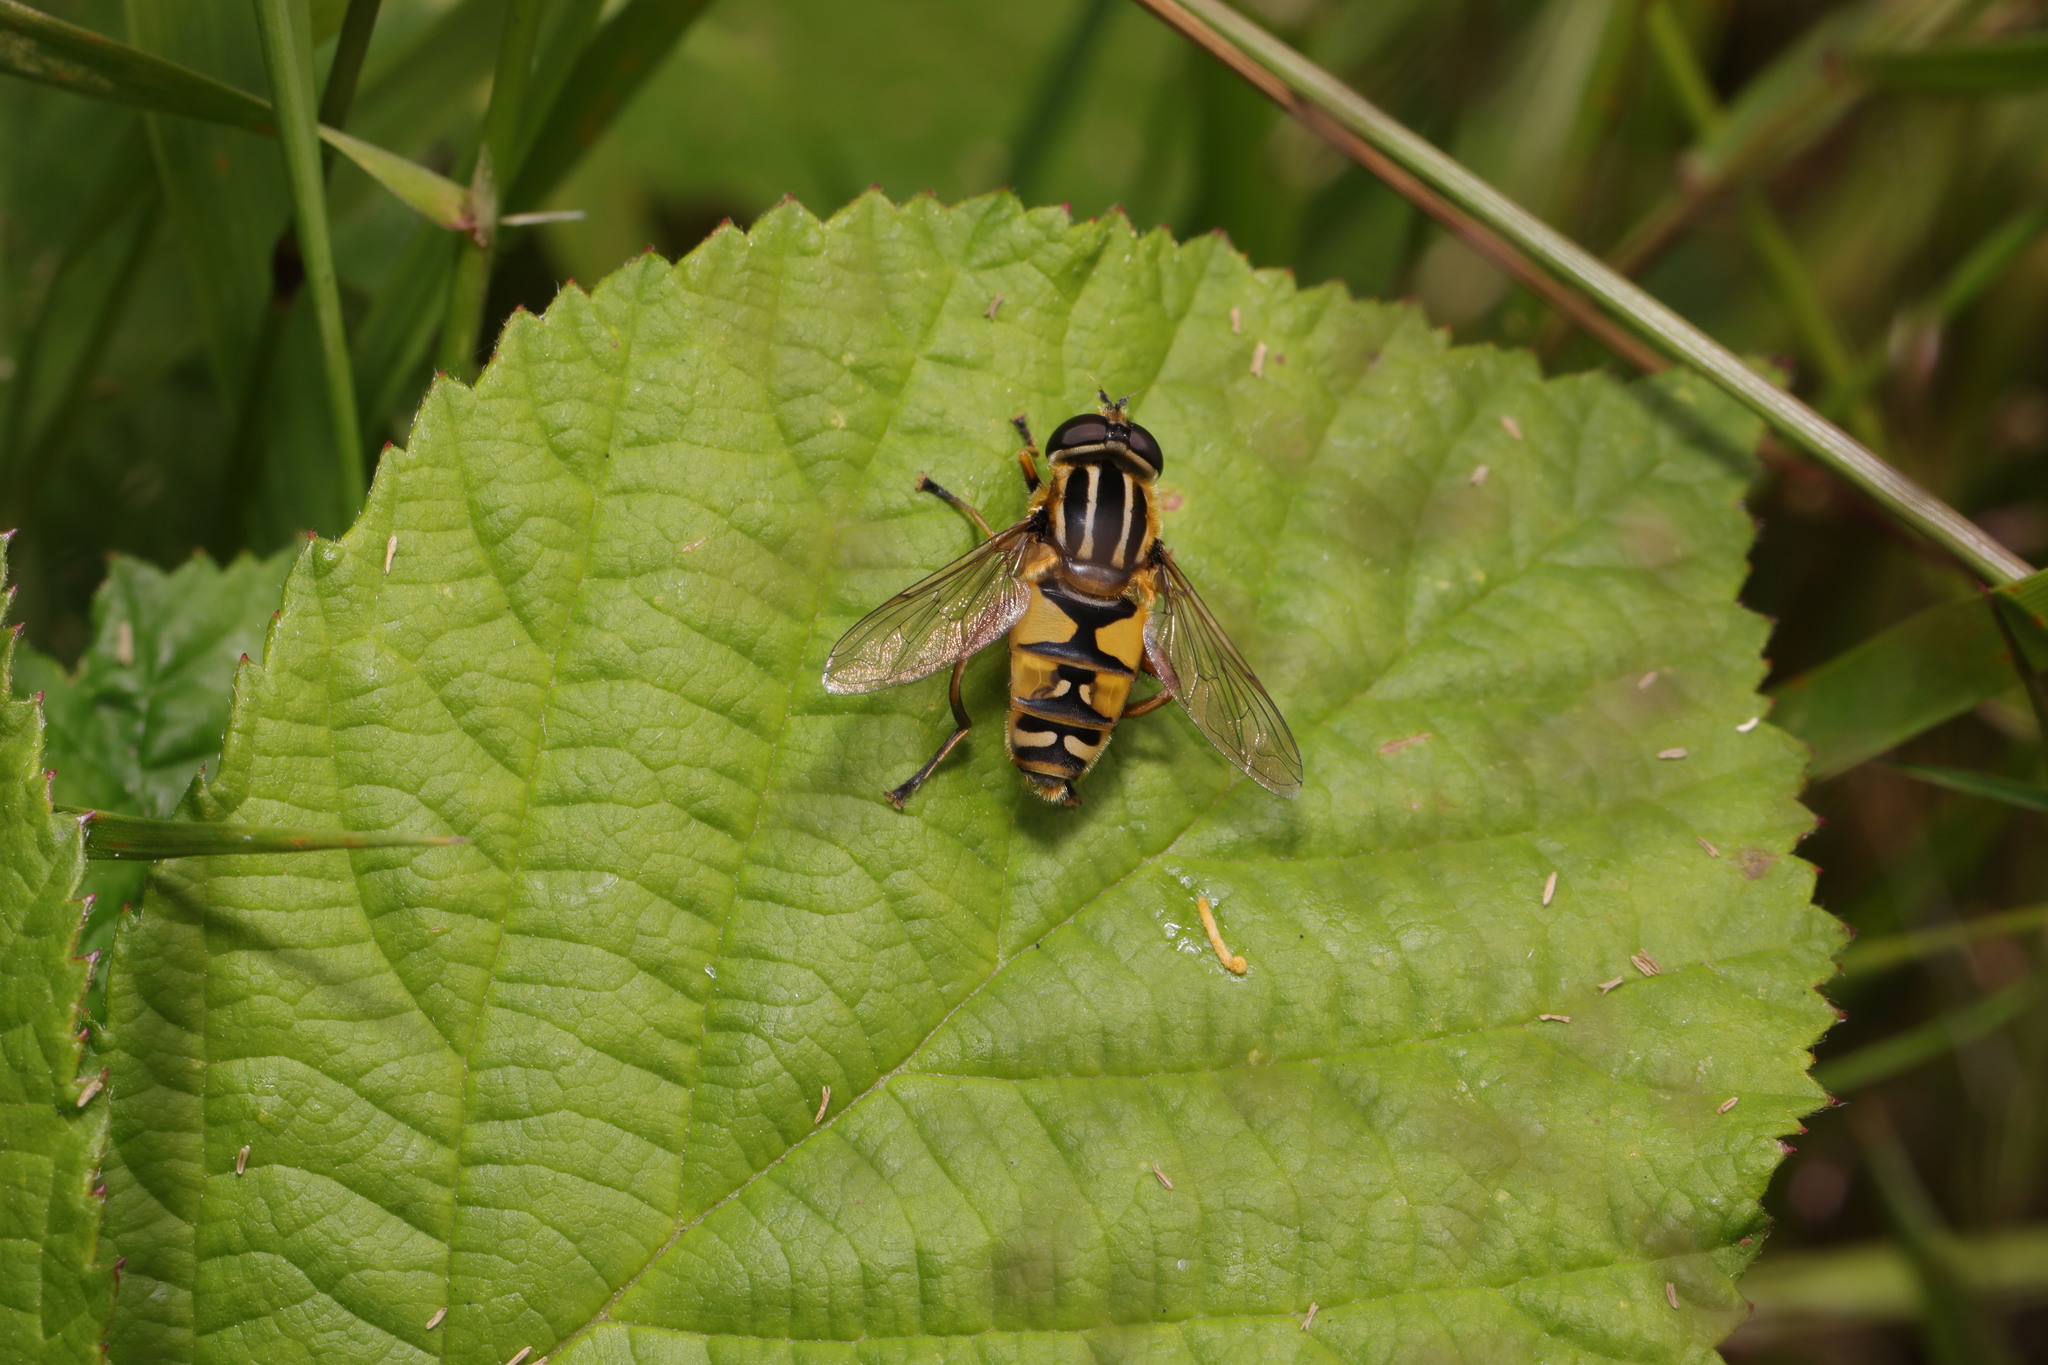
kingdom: Animalia
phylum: Arthropoda
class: Insecta
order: Diptera
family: Syrphidae
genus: Helophilus
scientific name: Helophilus pendulus
